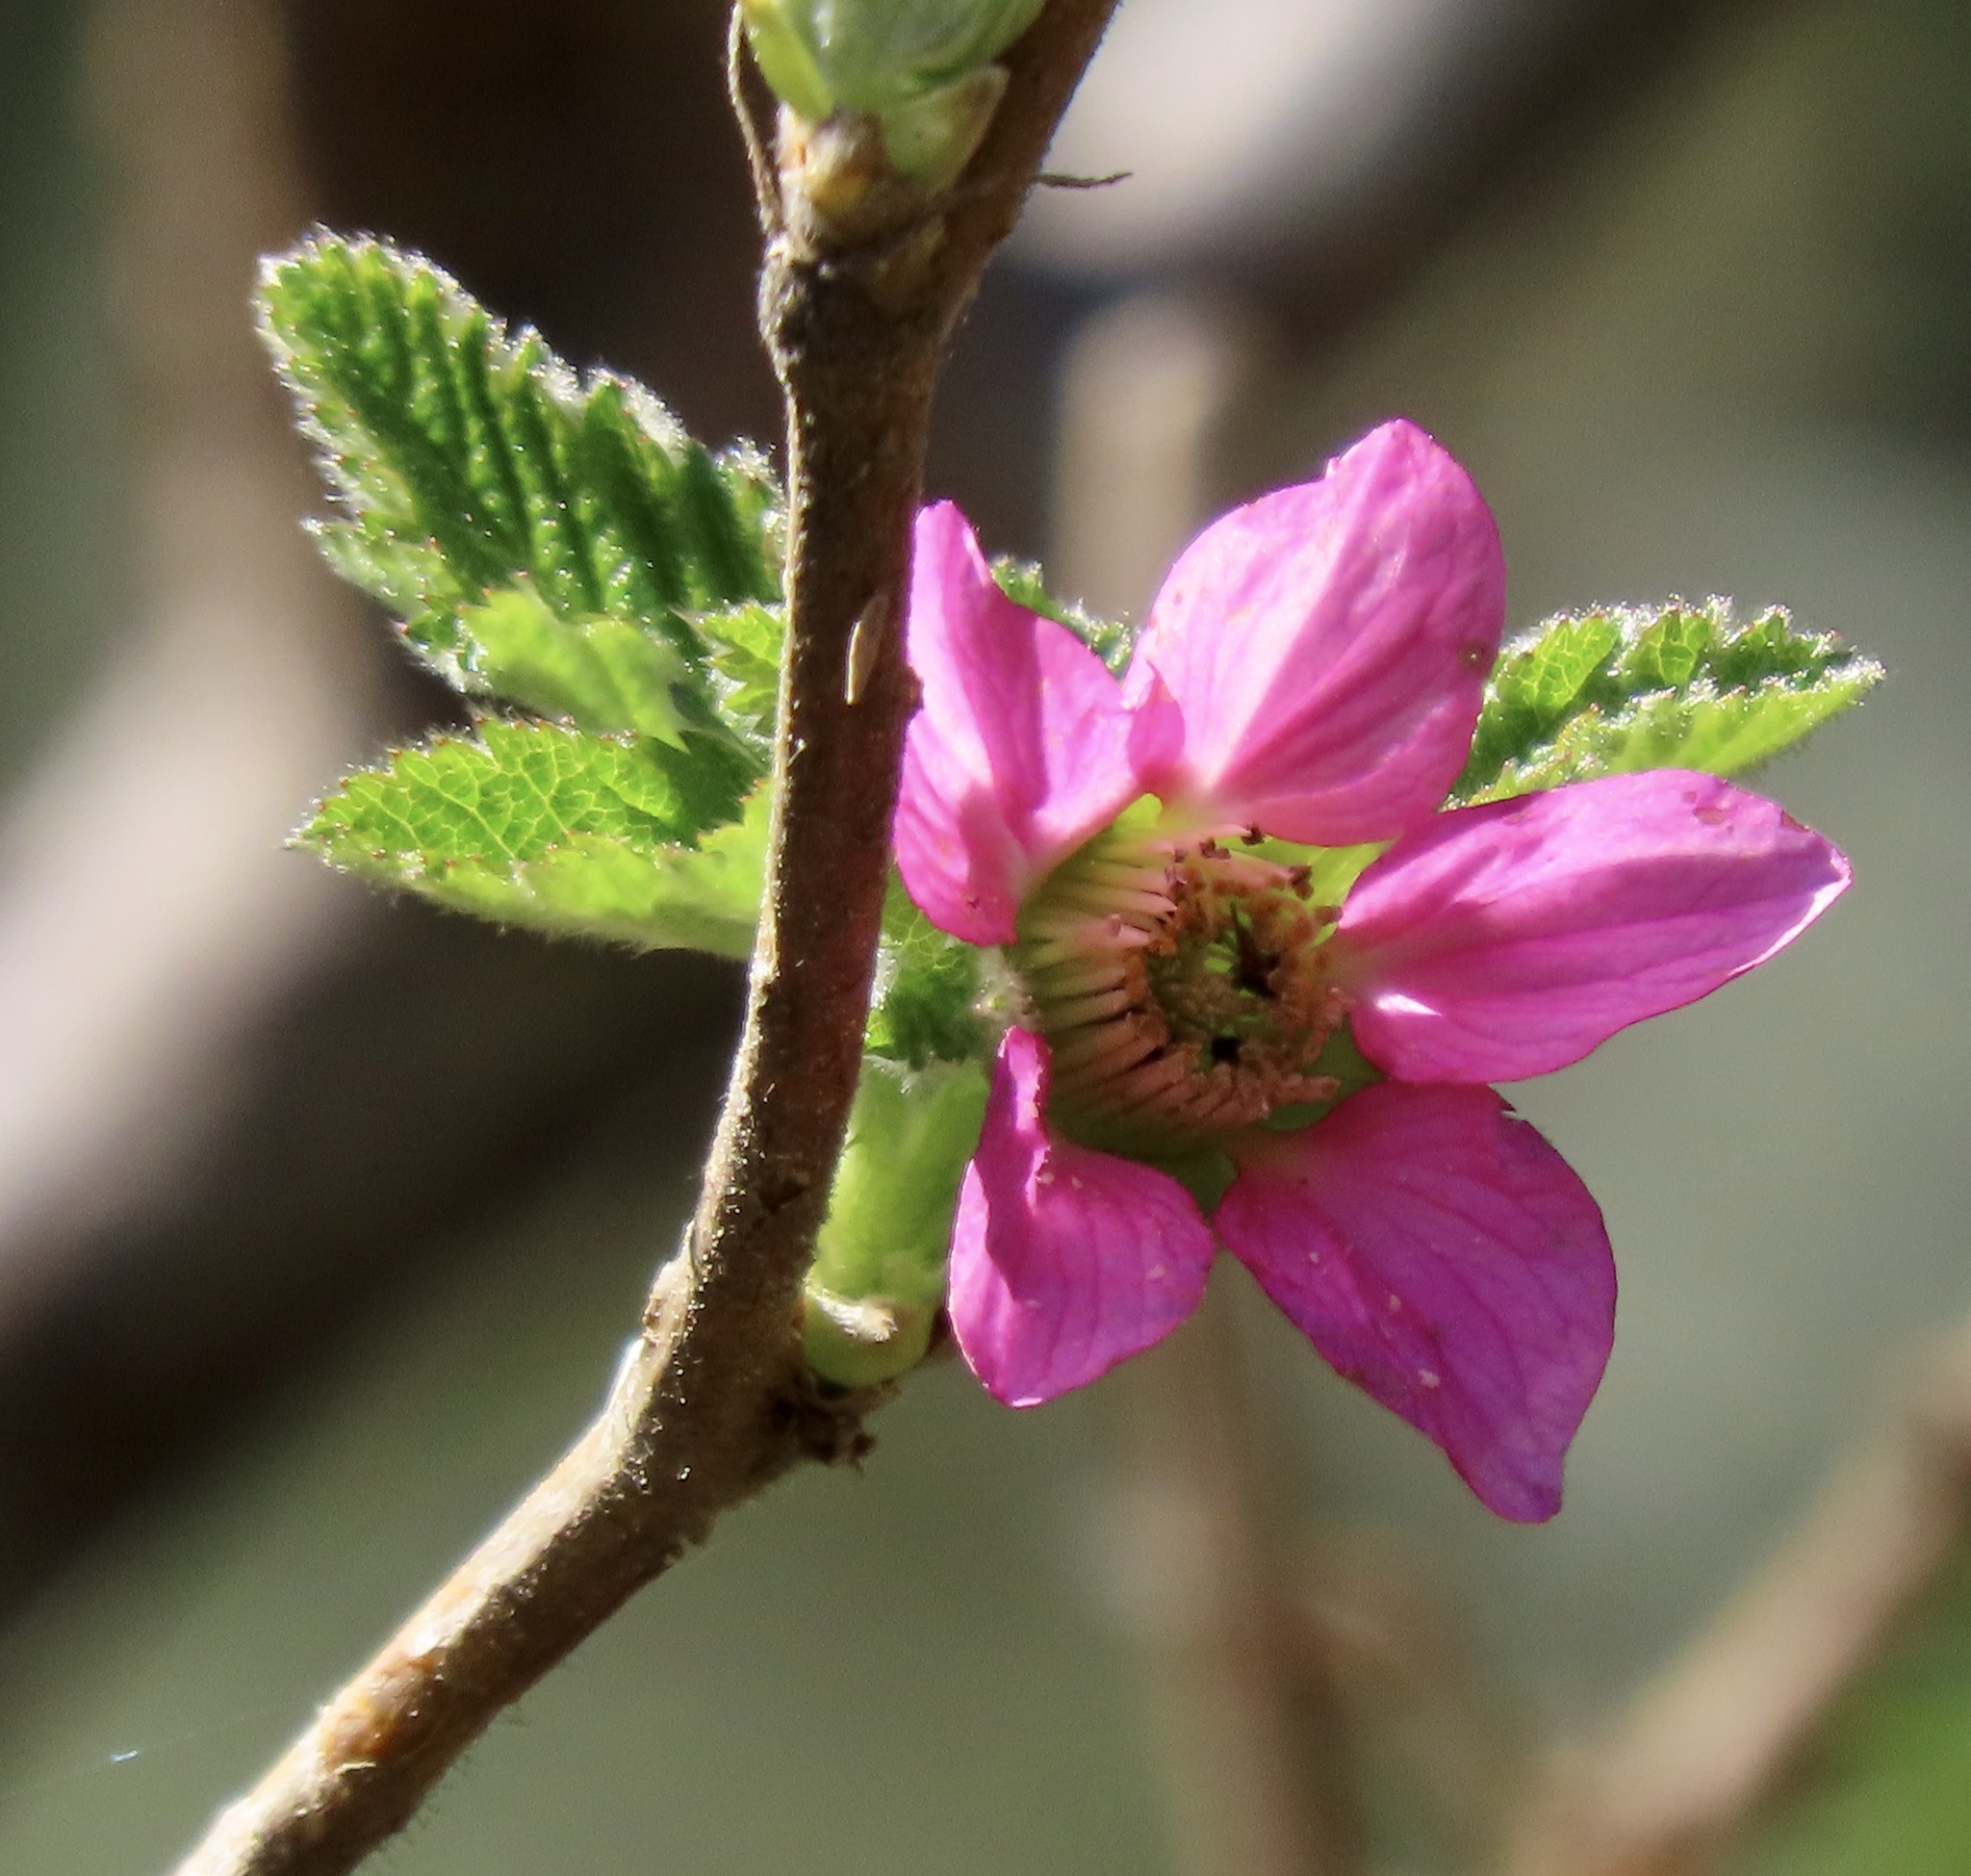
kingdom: Plantae
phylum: Tracheophyta
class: Magnoliopsida
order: Rosales
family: Rosaceae
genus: Rubus
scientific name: Rubus spectabilis
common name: Salmonberry
